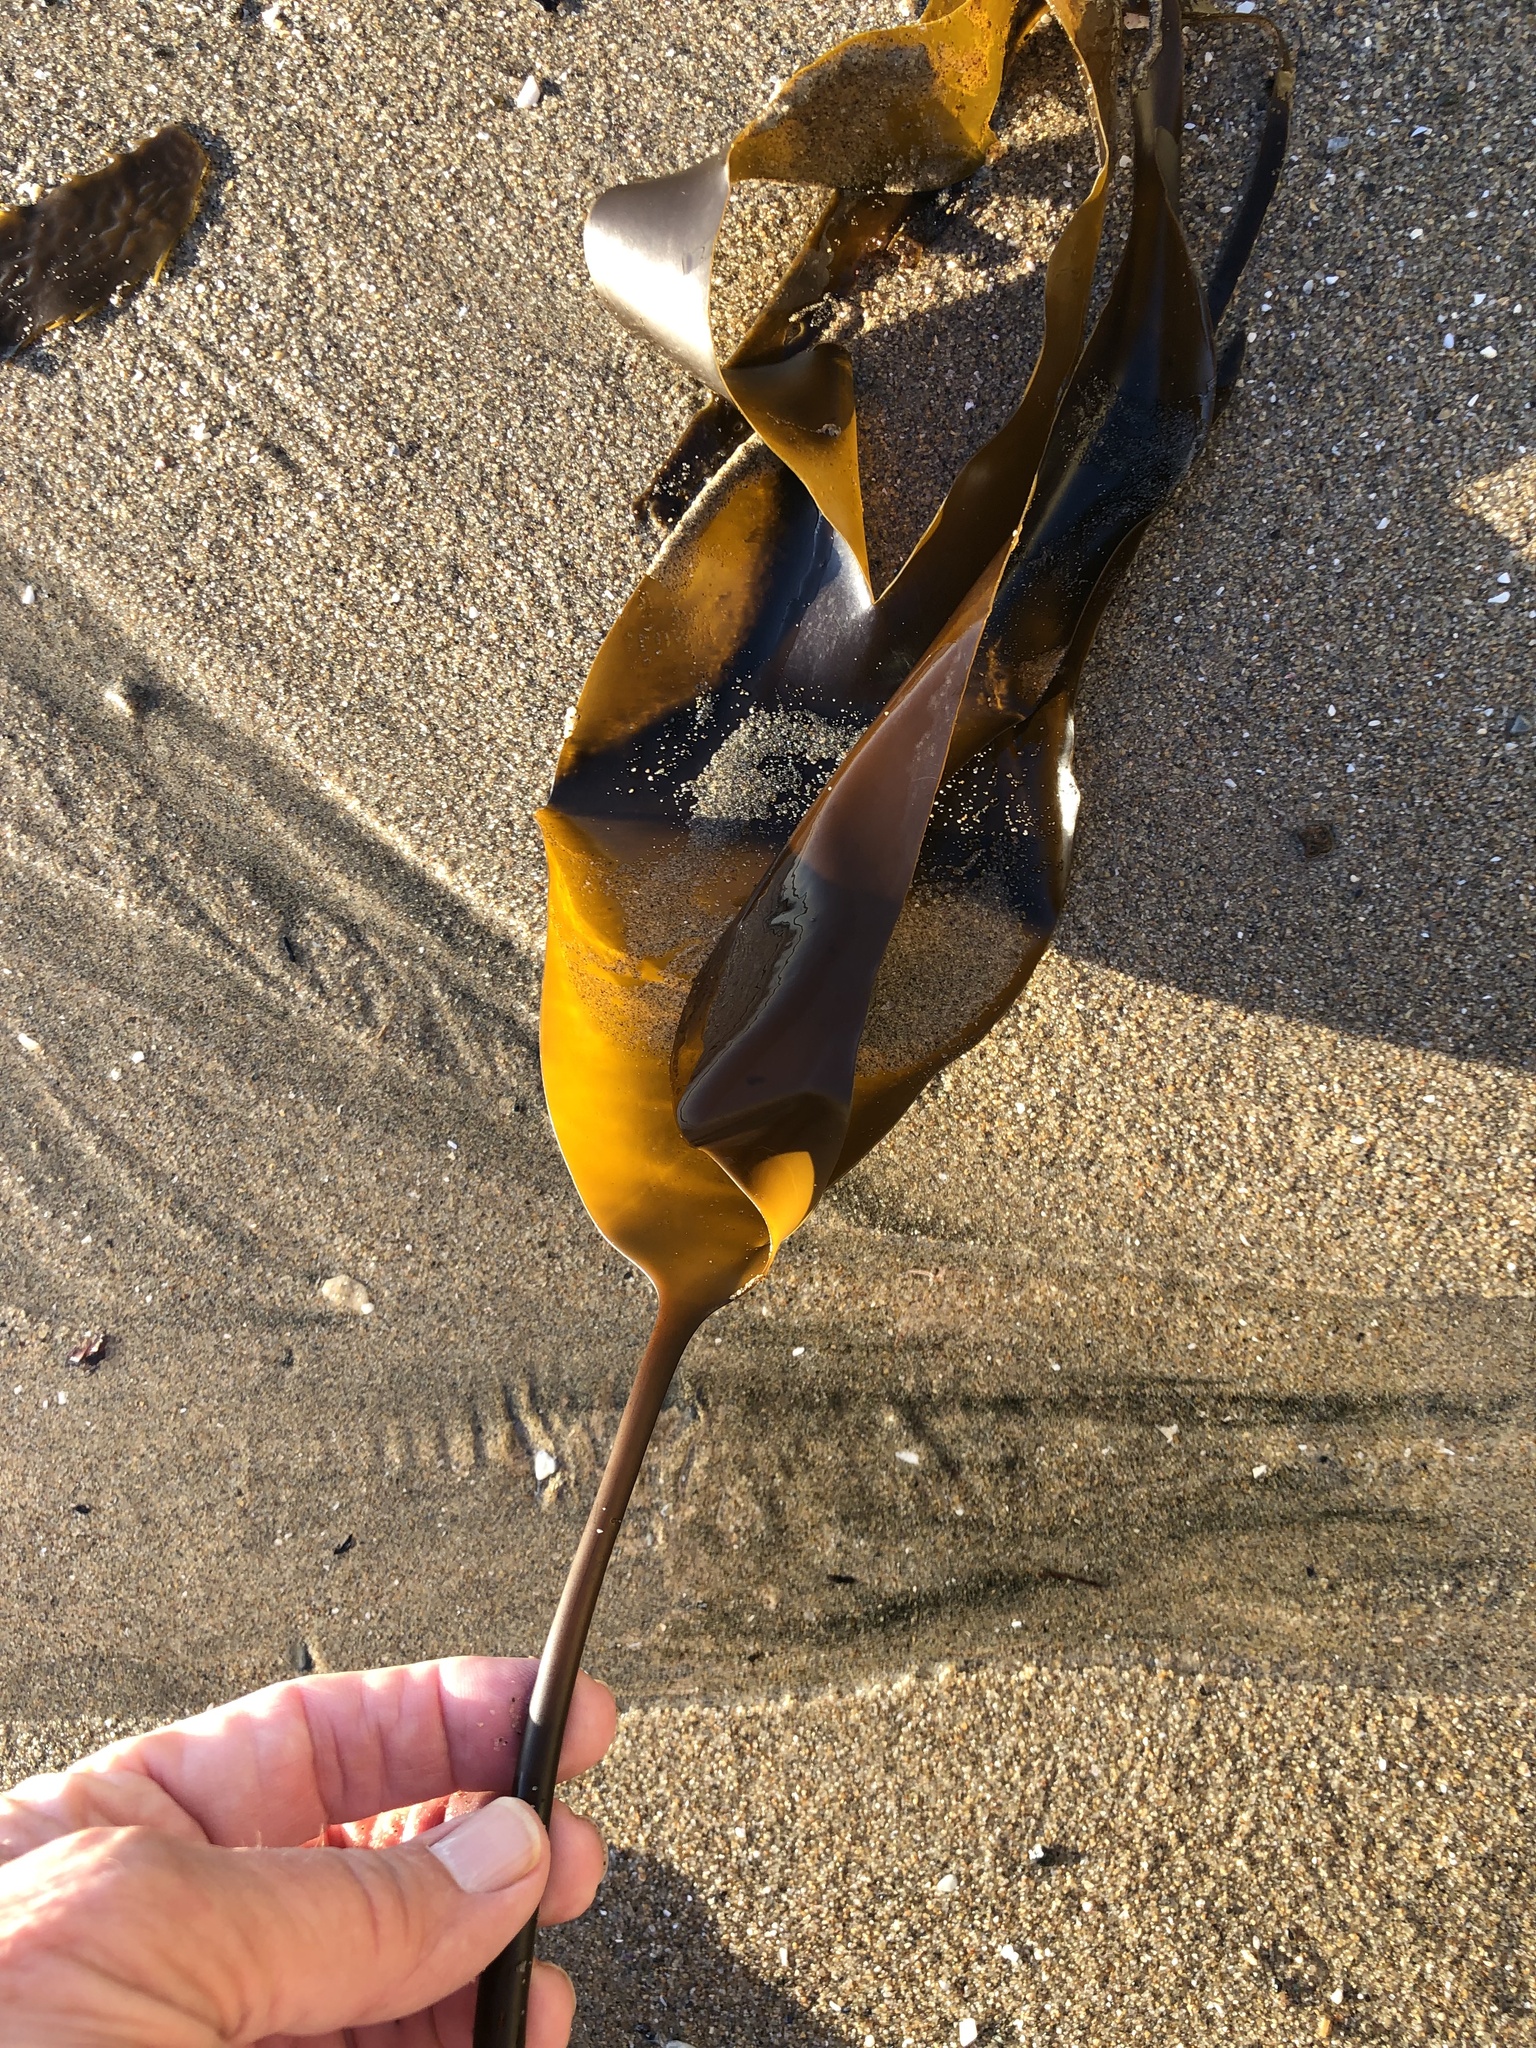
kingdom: Chromista
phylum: Ochrophyta
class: Phaeophyceae
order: Laminariales
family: Laminariaceae
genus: Laminaria
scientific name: Laminaria setchellii
